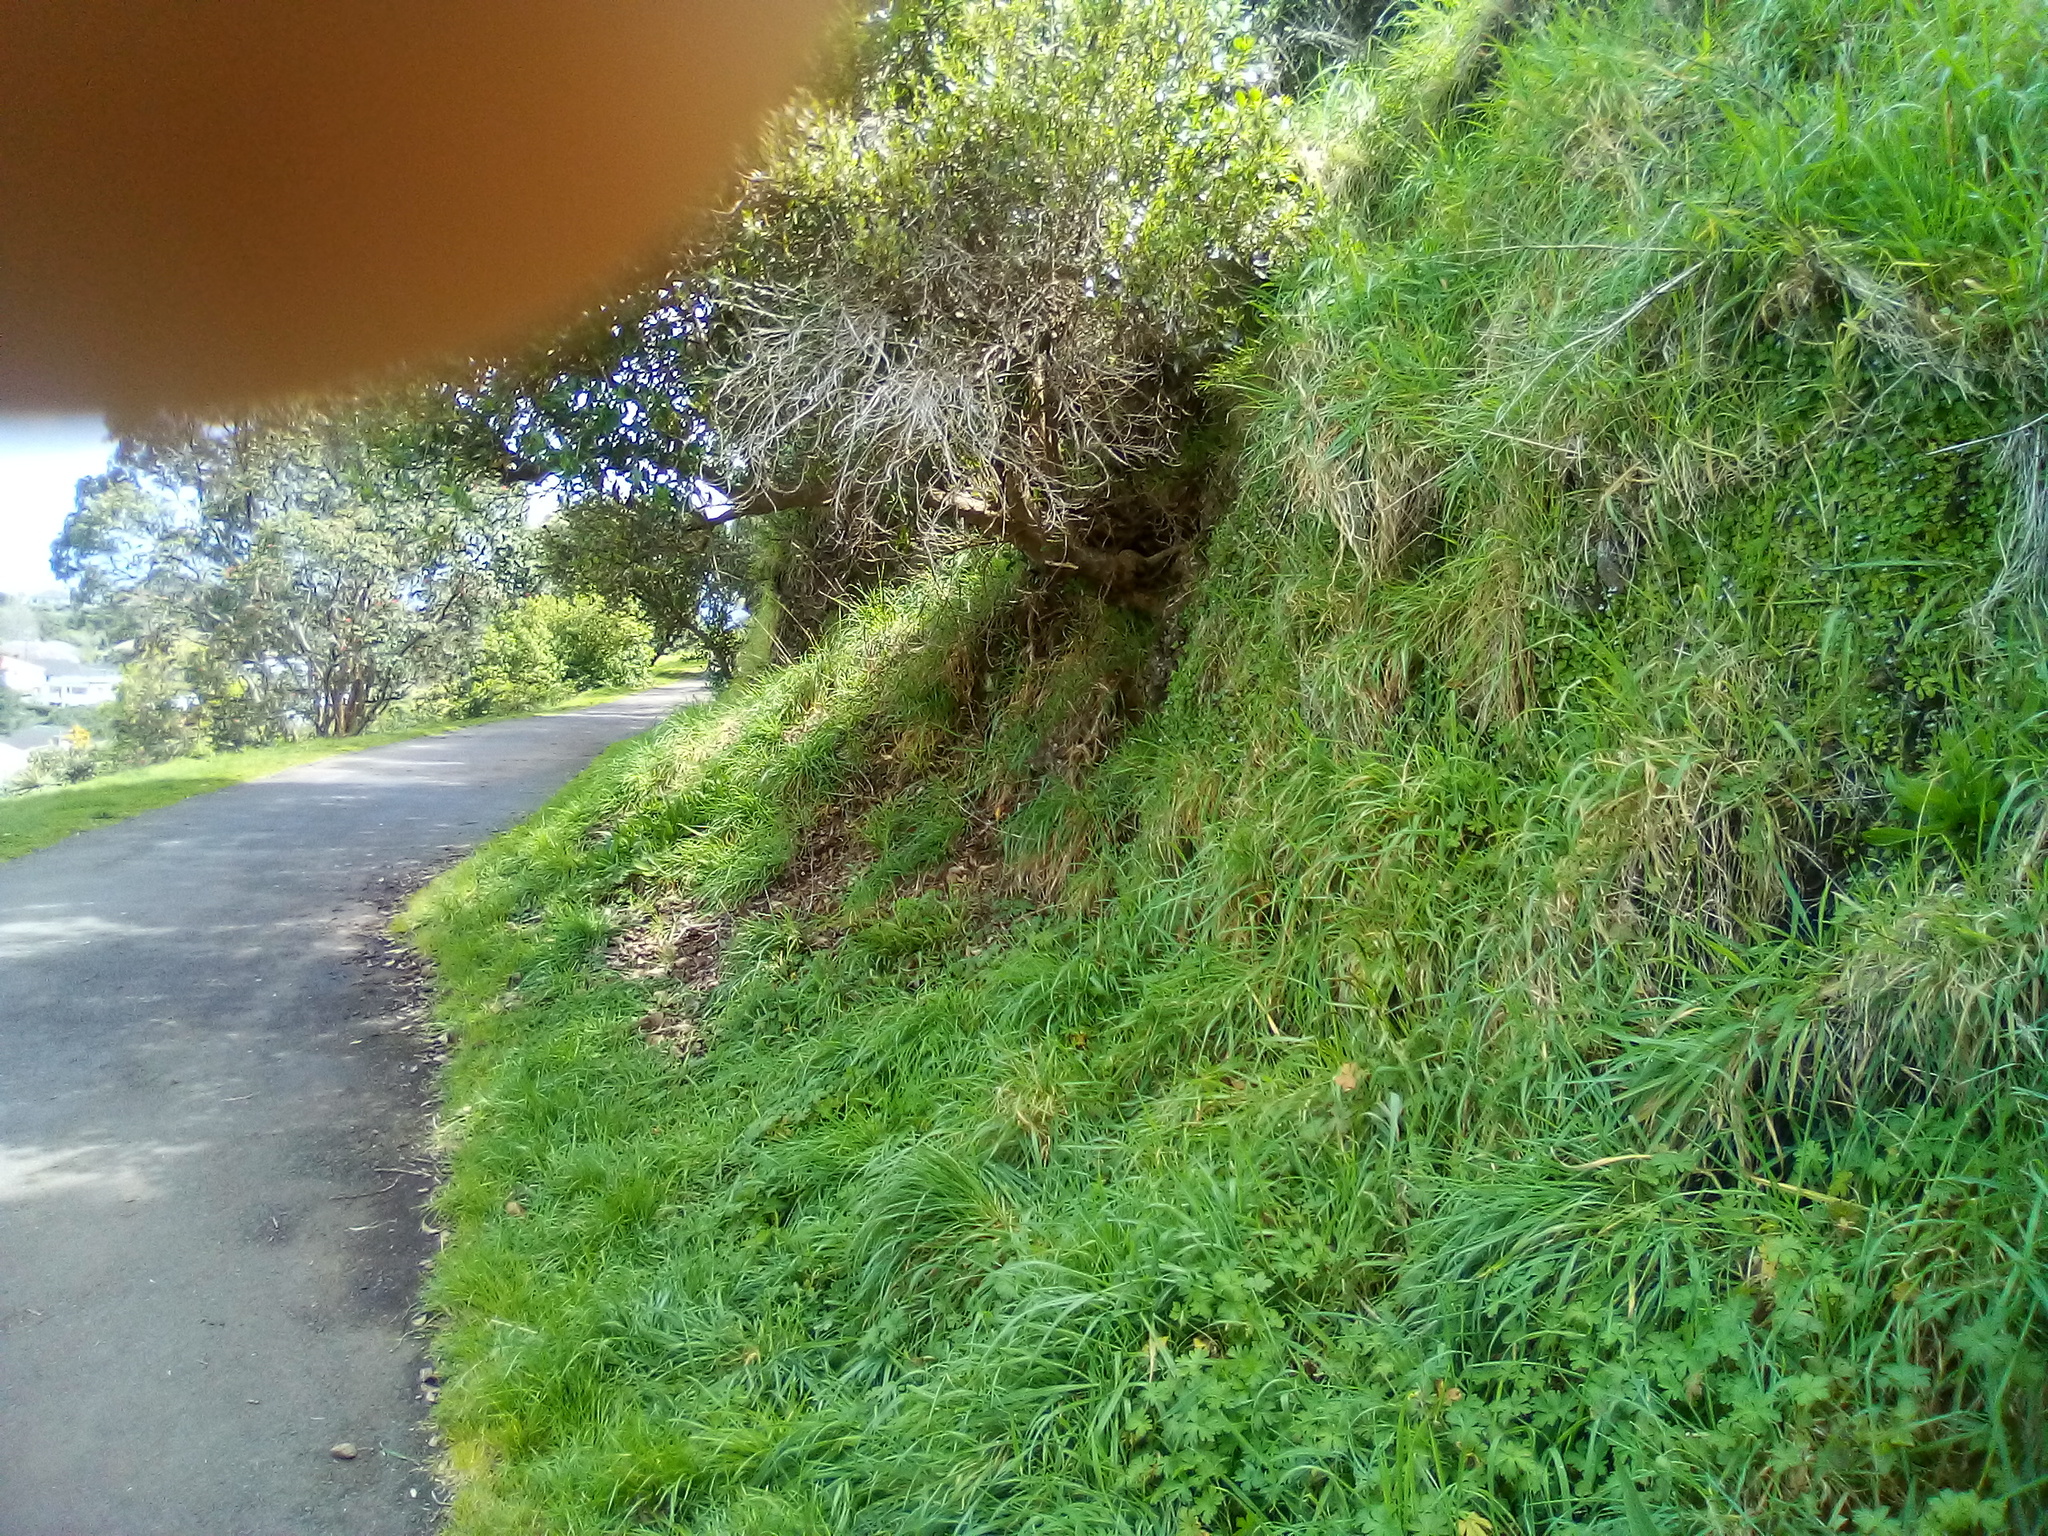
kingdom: Plantae
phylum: Marchantiophyta
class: Marchantiopsida
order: Marchantiales
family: Aytoniaceae
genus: Reboulia
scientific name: Reboulia hemisphaerica
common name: Purple-margined liverwort
